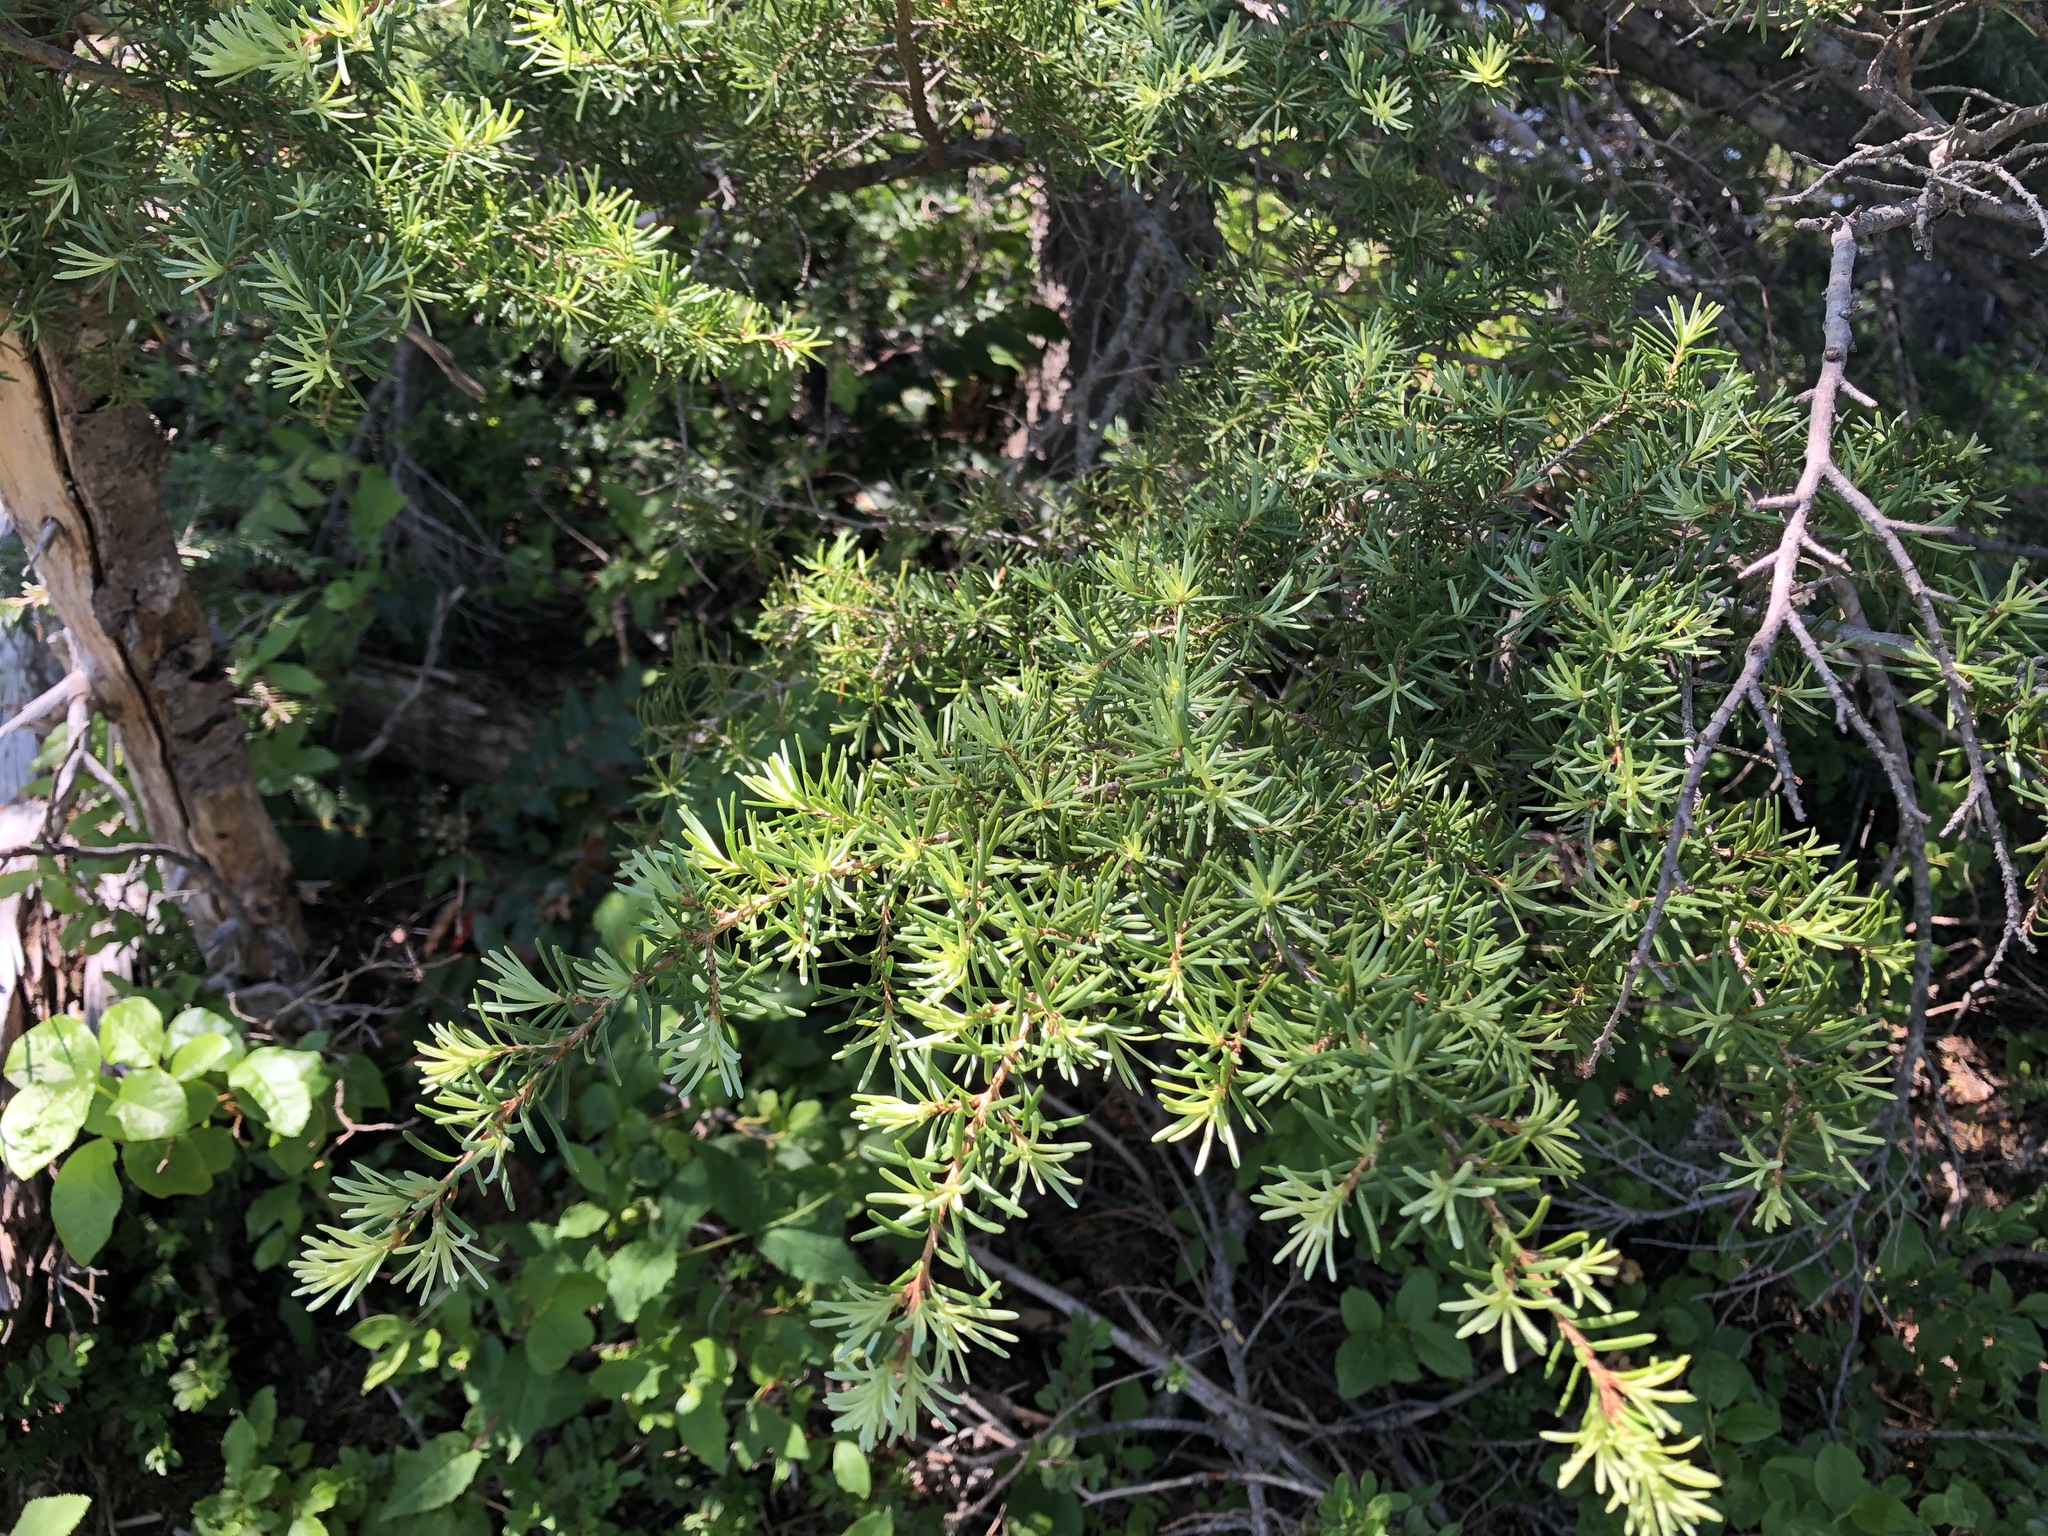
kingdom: Plantae
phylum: Tracheophyta
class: Pinopsida
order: Pinales
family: Pinaceae
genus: Tsuga
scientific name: Tsuga mertensiana
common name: Mountain hemlock
